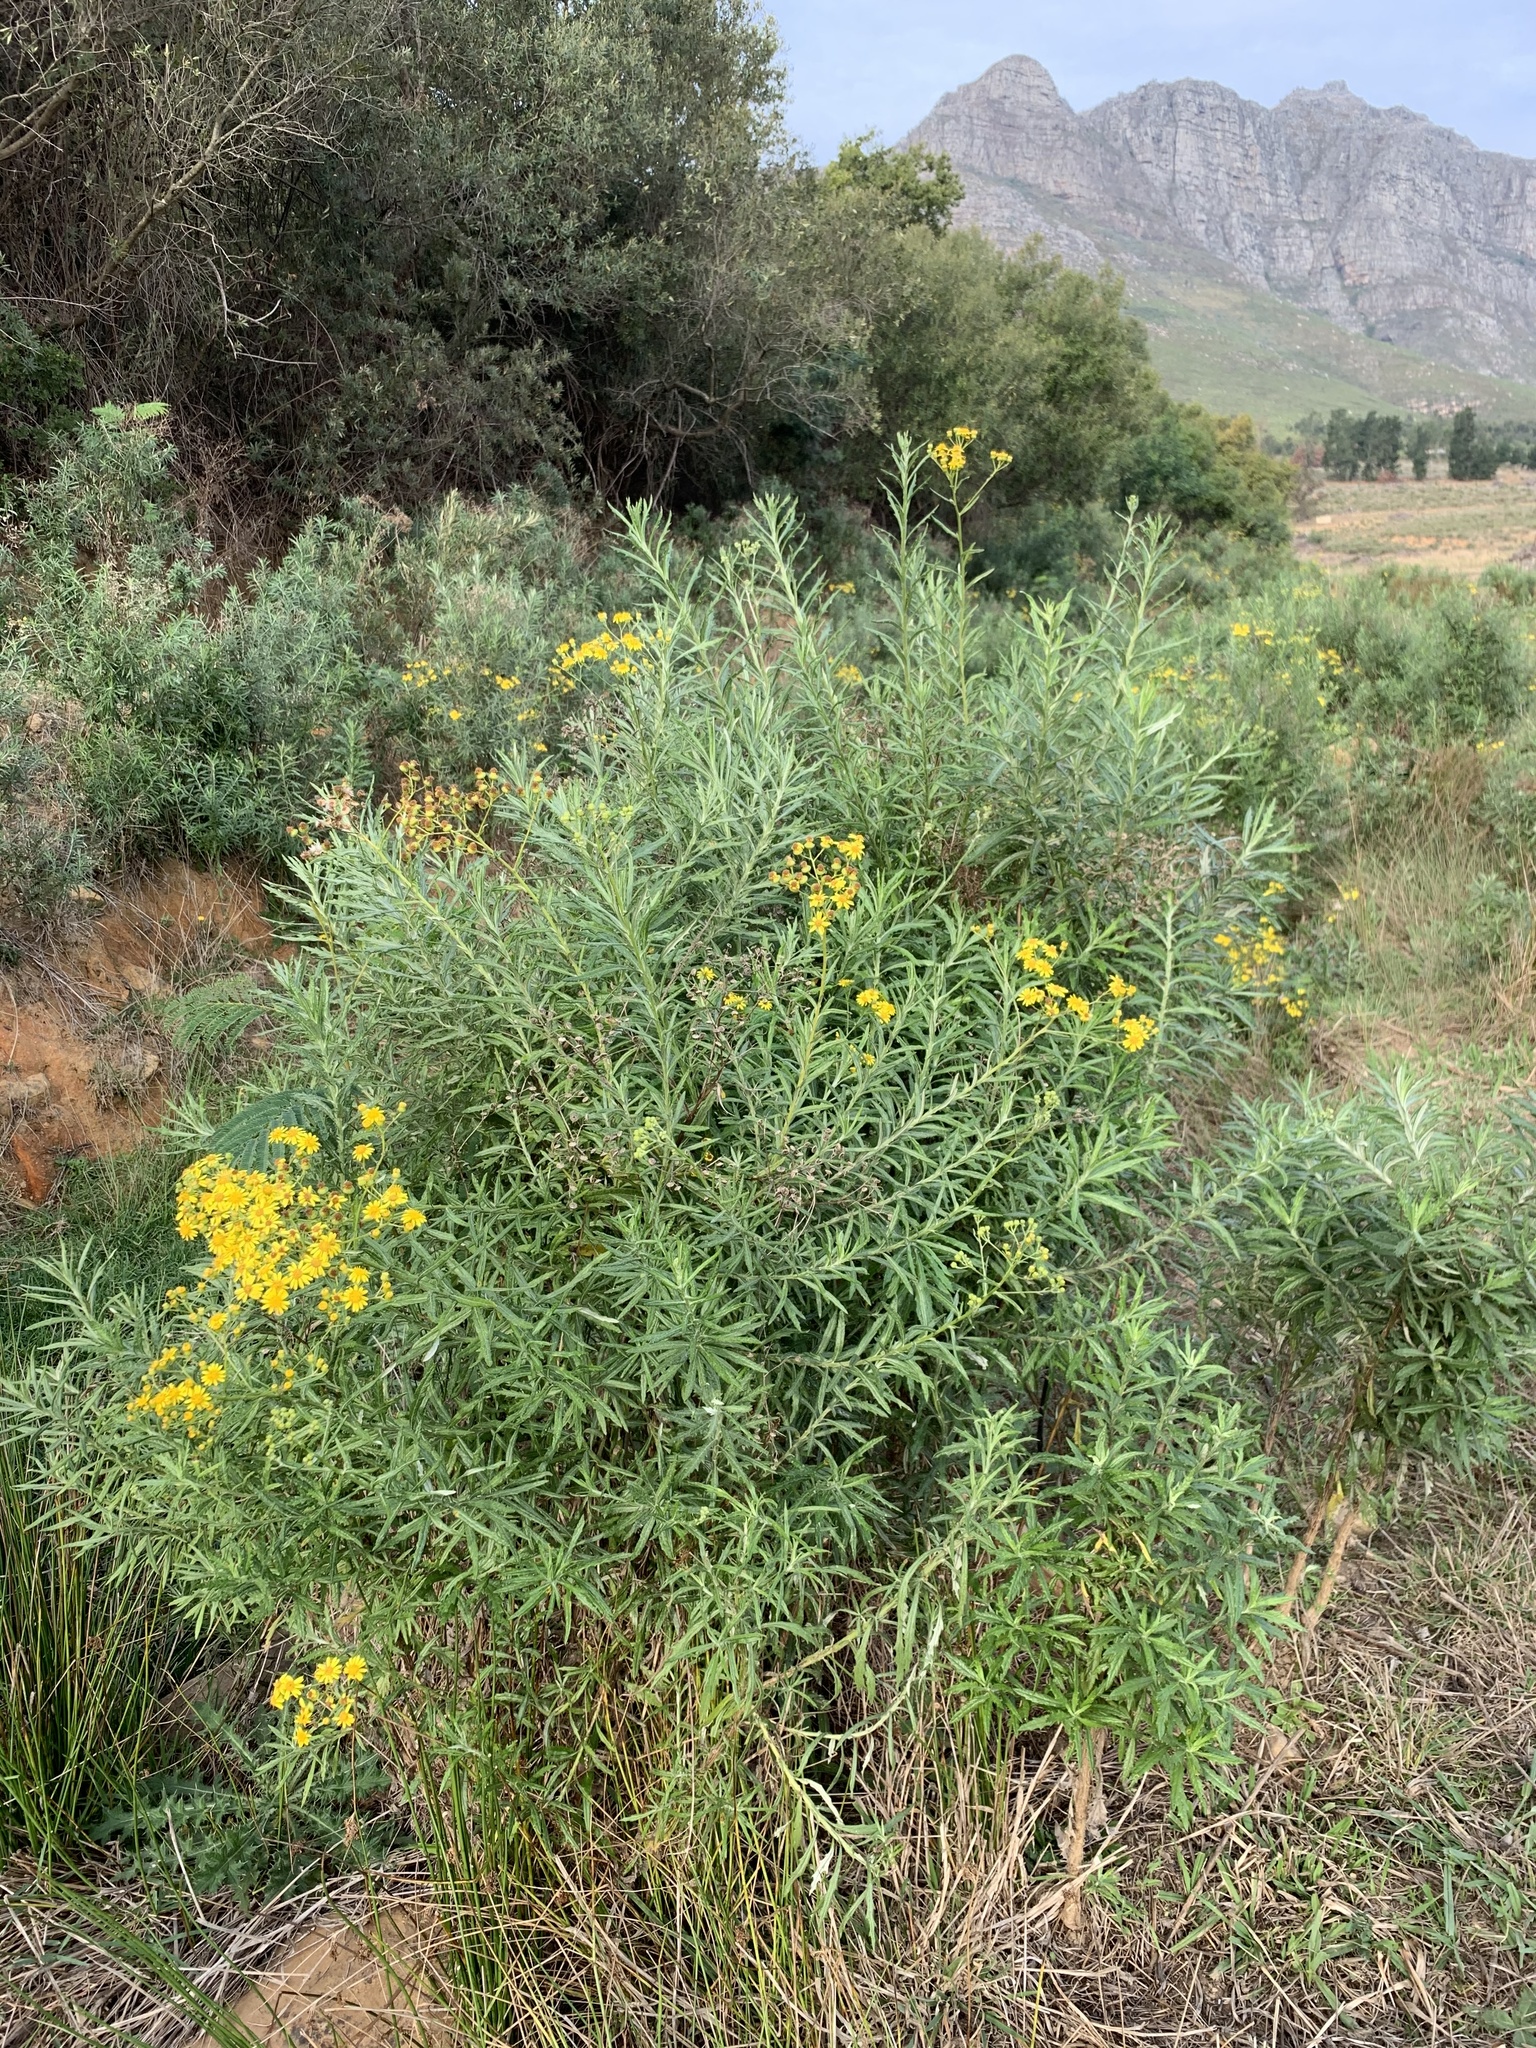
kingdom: Plantae
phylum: Tracheophyta
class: Magnoliopsida
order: Asterales
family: Asteraceae
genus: Senecio
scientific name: Senecio pterophorus
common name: Shoddy ragwort
